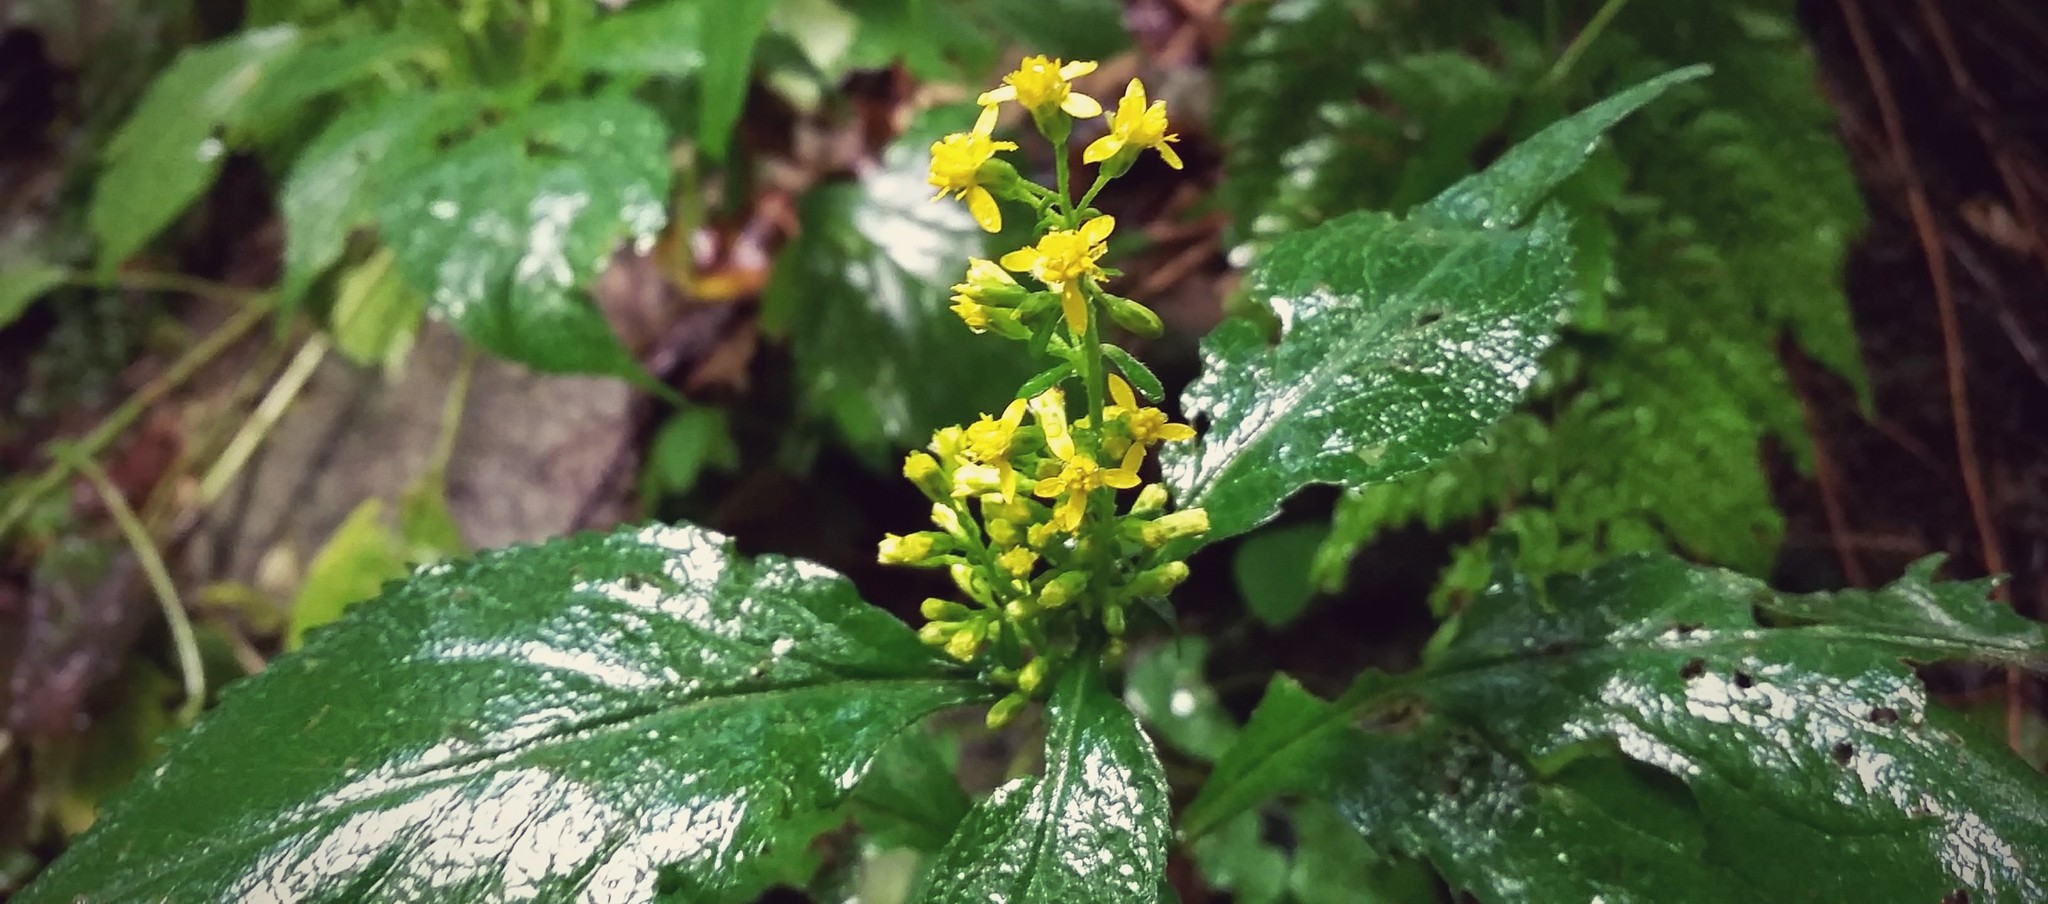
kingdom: Plantae
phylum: Tracheophyta
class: Magnoliopsida
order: Asterales
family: Asteraceae
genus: Solidago
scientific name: Solidago flexicaulis
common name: Zig-zag goldenrod
